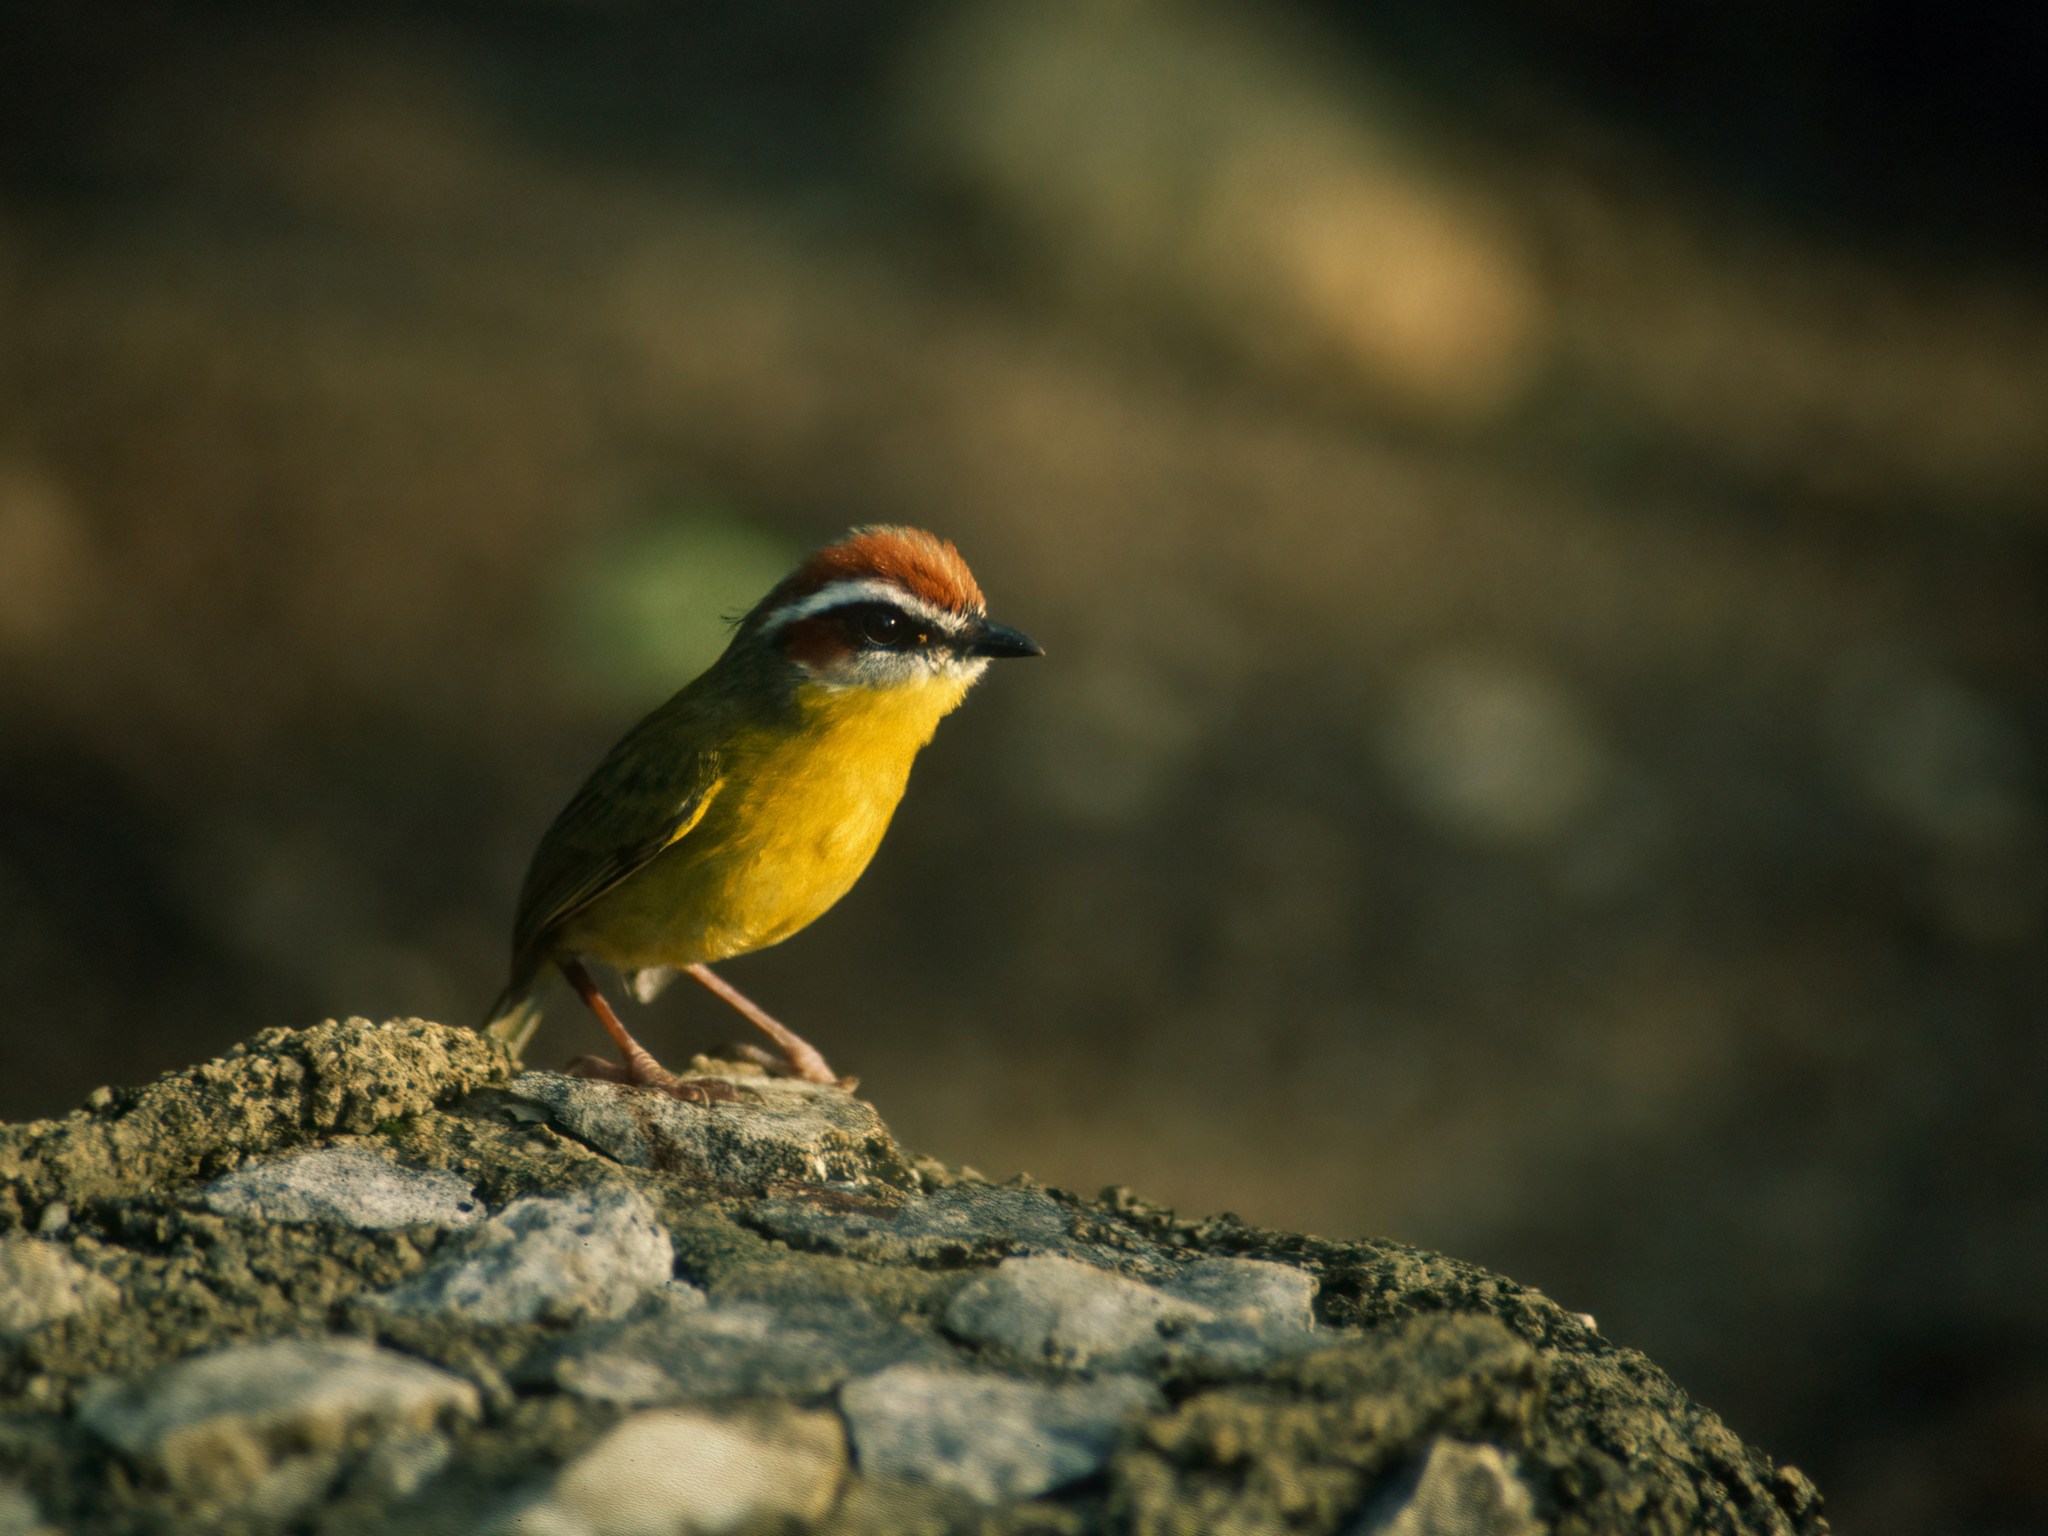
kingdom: Animalia
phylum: Chordata
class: Aves
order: Passeriformes
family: Parulidae
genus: Basileuterus
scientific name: Basileuterus rufifrons
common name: Rufous-capped warbler
